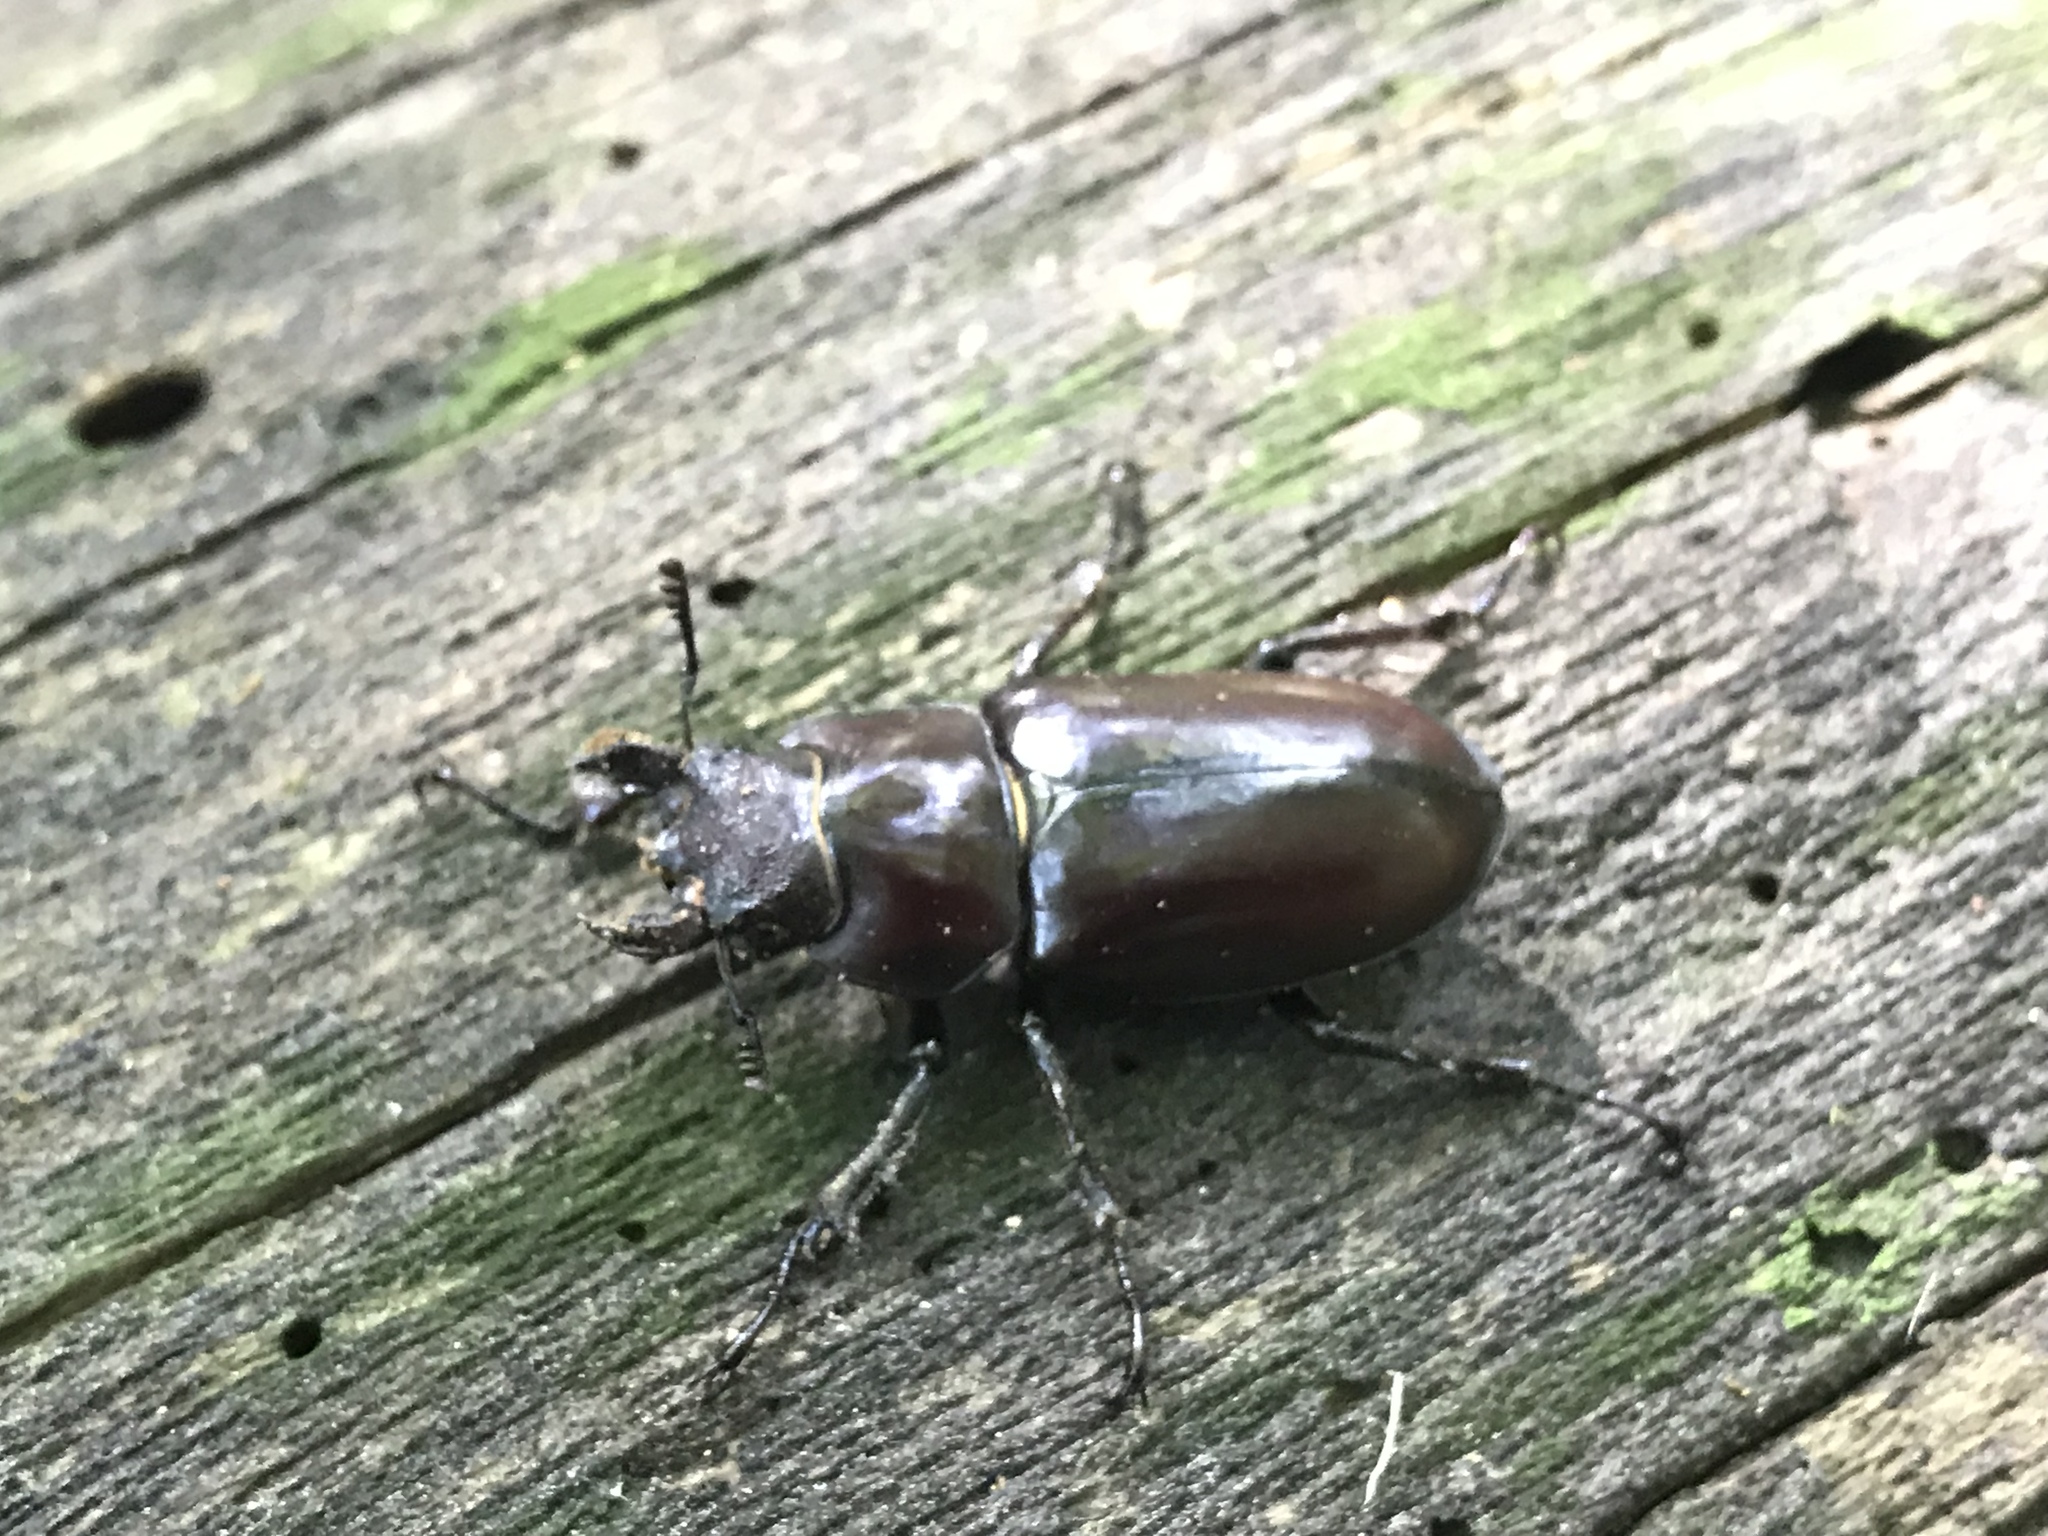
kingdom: Animalia
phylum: Arthropoda
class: Insecta
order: Coleoptera
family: Lucanidae
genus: Lucanus
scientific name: Lucanus elaphus
